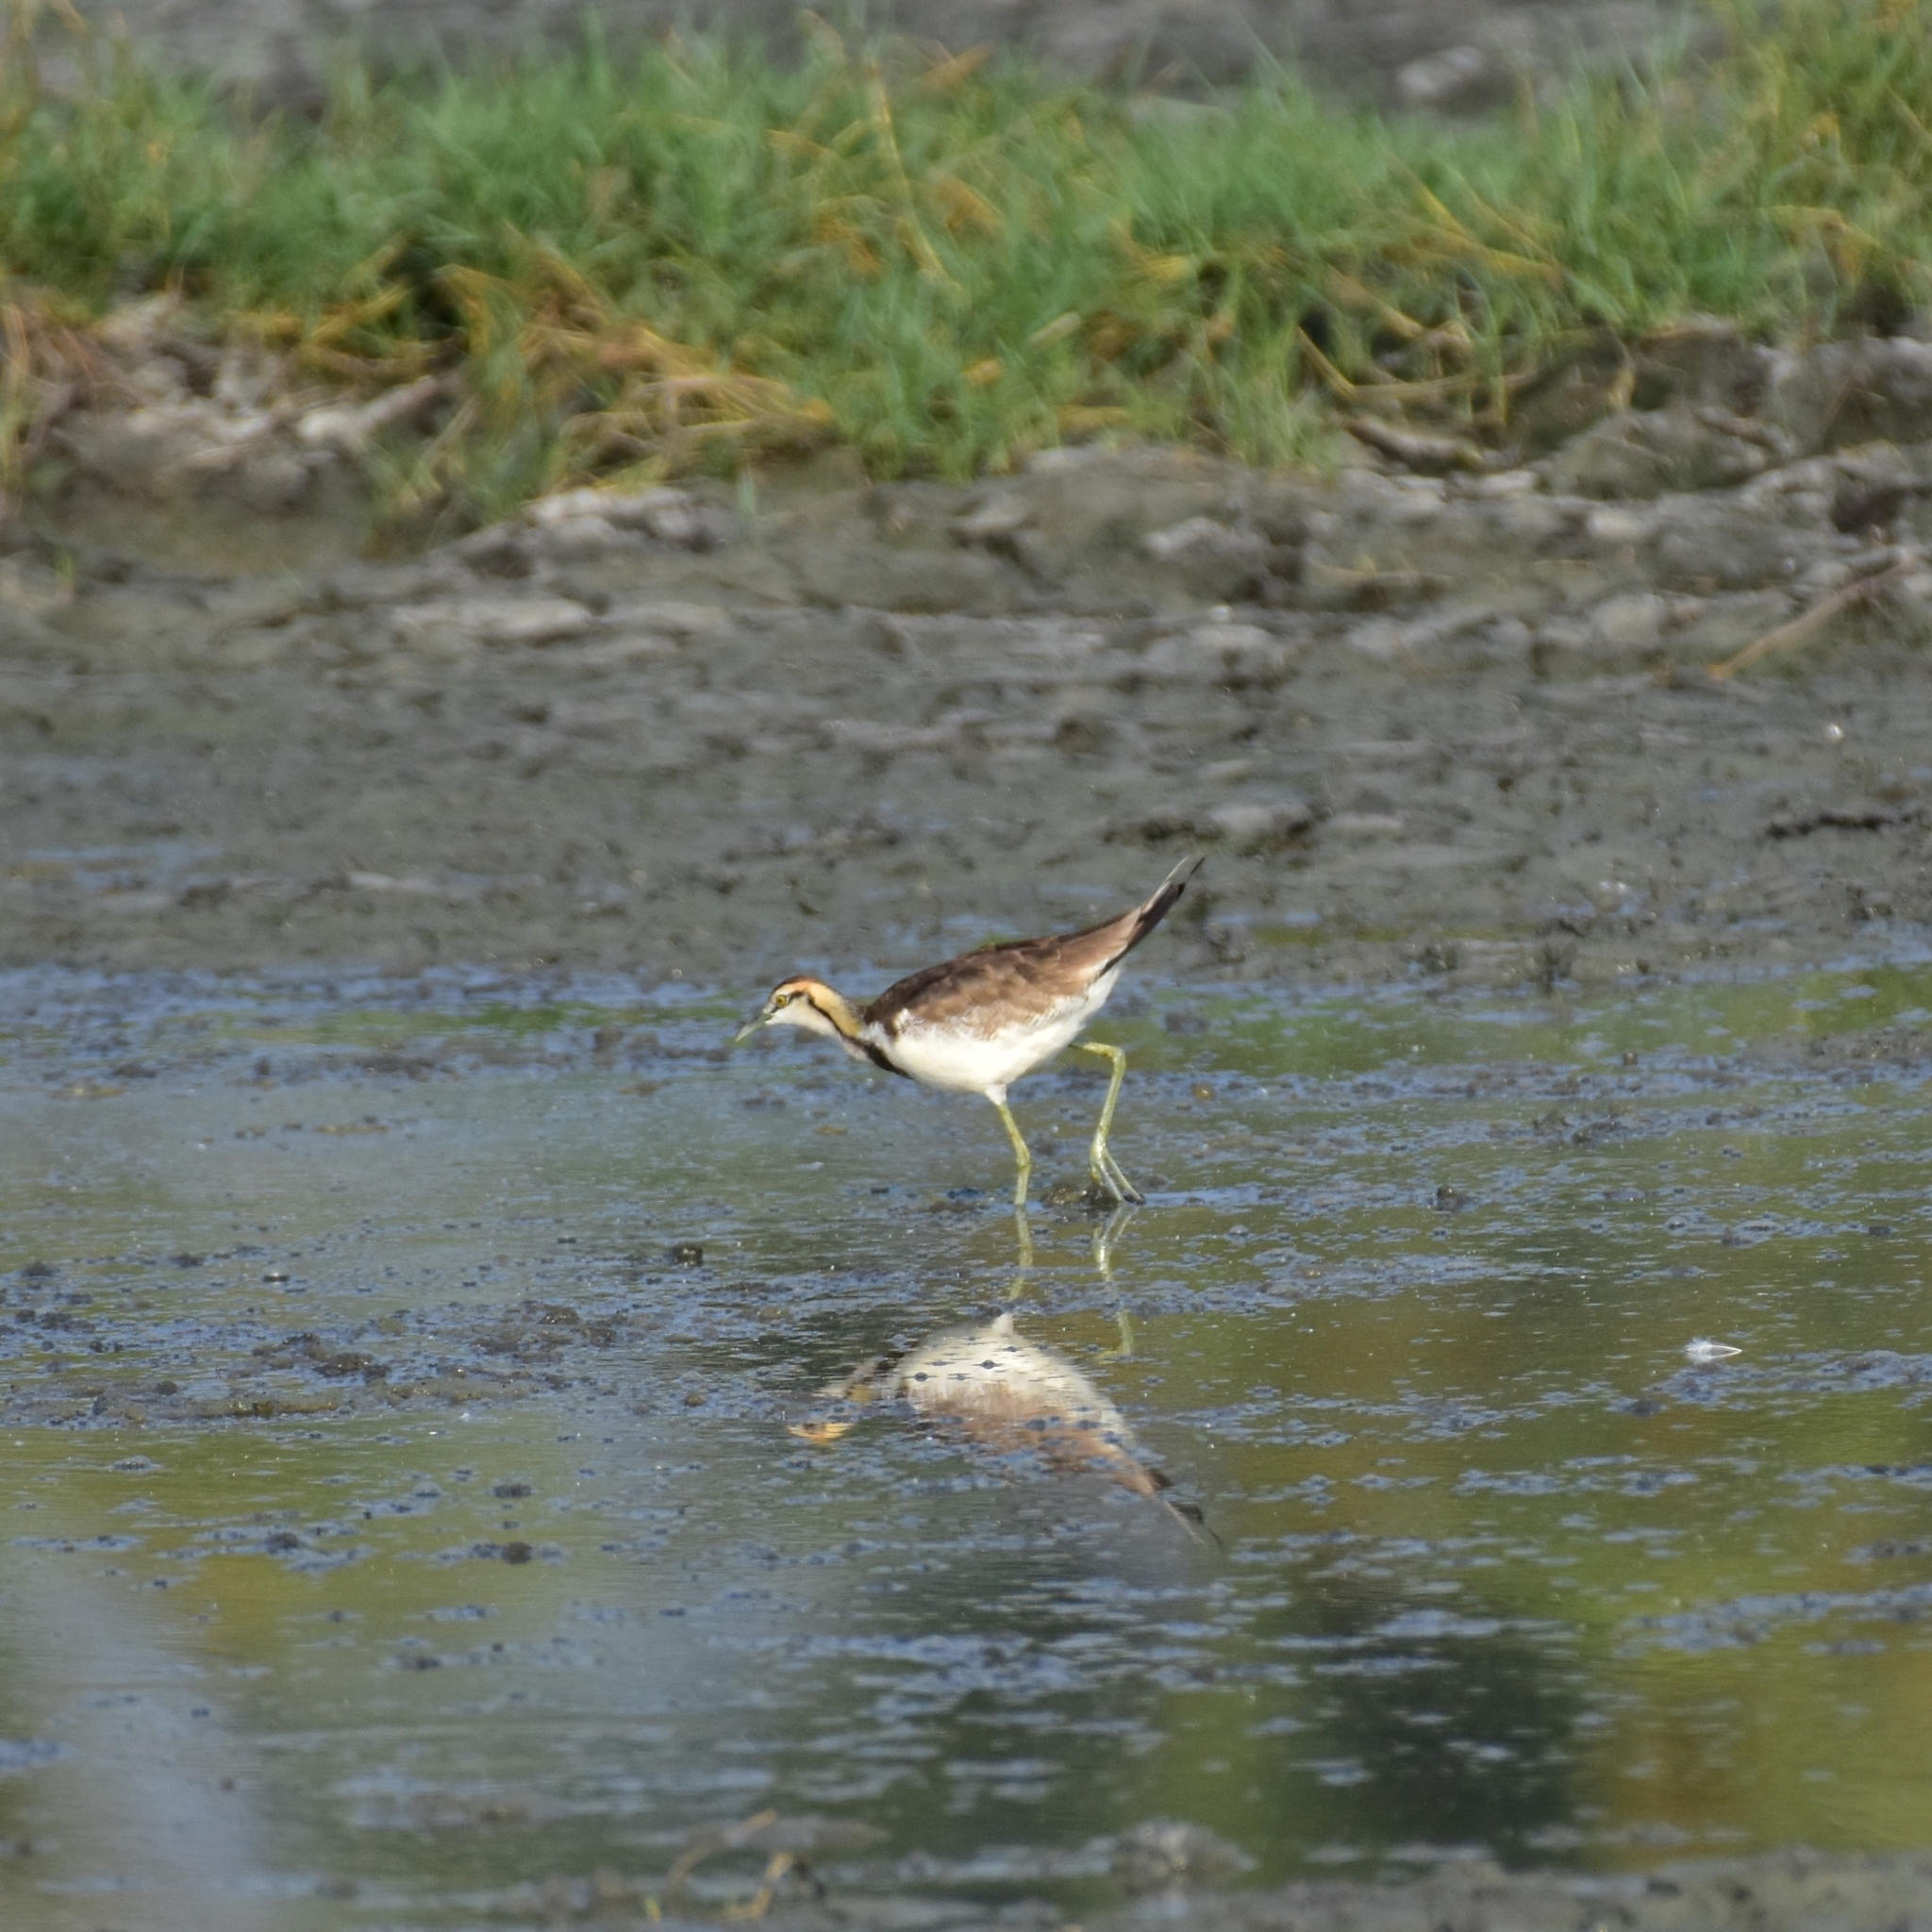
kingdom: Animalia
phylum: Chordata
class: Aves
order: Charadriiformes
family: Jacanidae
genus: Hydrophasianus
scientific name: Hydrophasianus chirurgus
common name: Pheasant-tailed jacana
